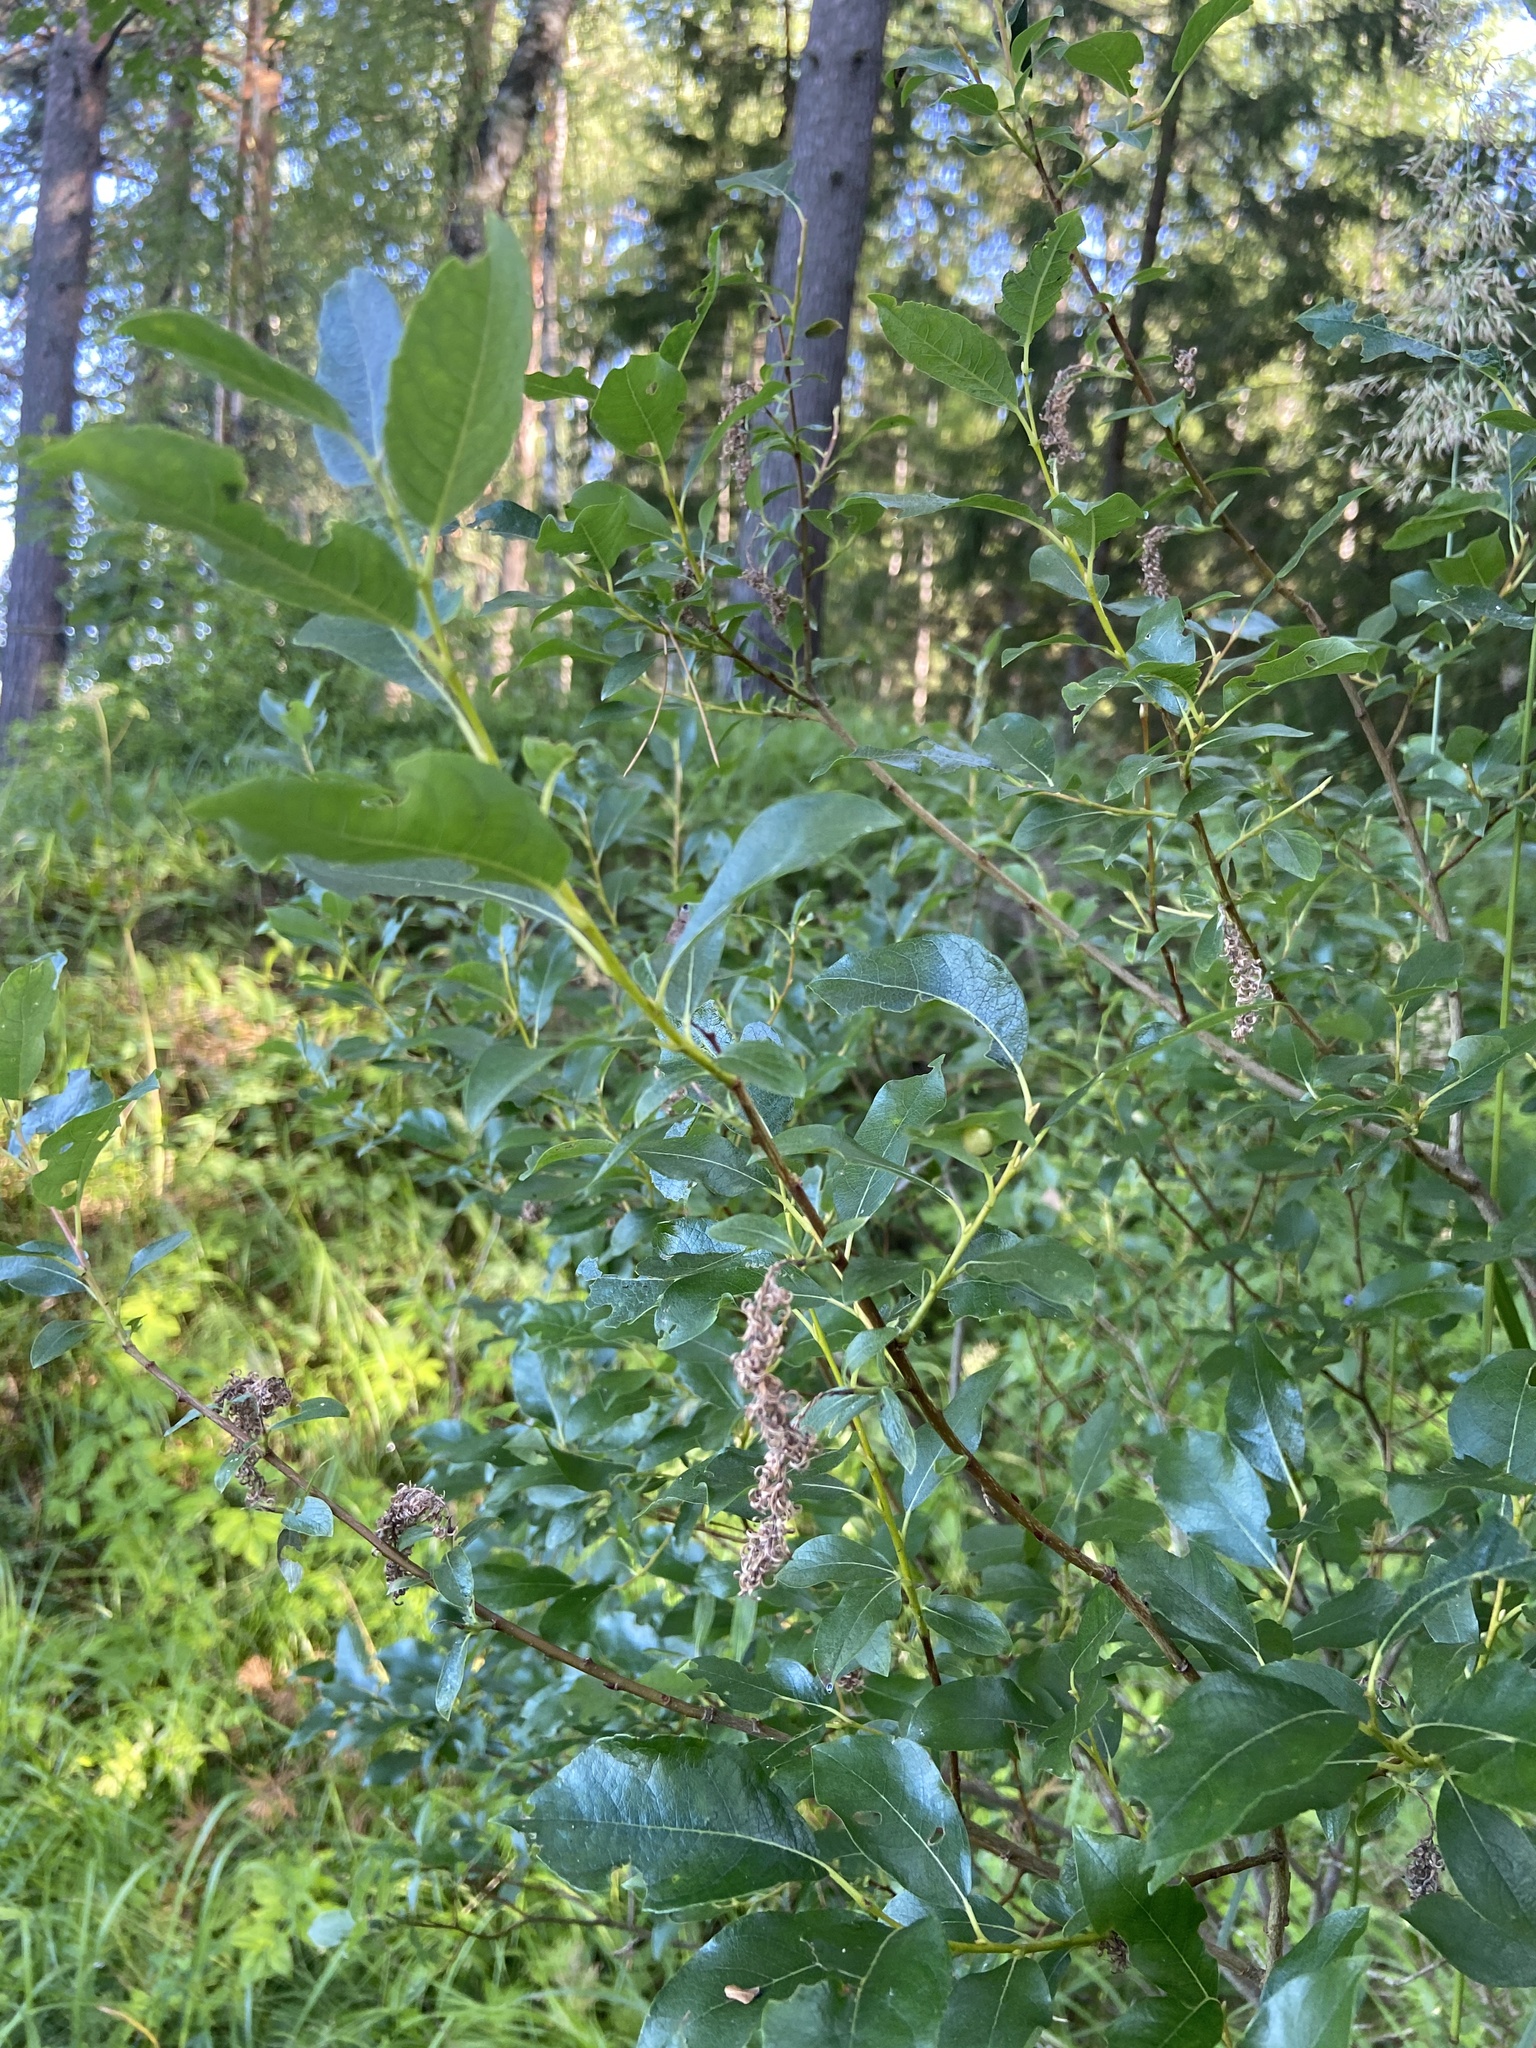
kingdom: Plantae
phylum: Tracheophyta
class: Magnoliopsida
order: Malpighiales
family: Salicaceae
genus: Salix
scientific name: Salix myrsinifolia
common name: Dark-leaved willow
